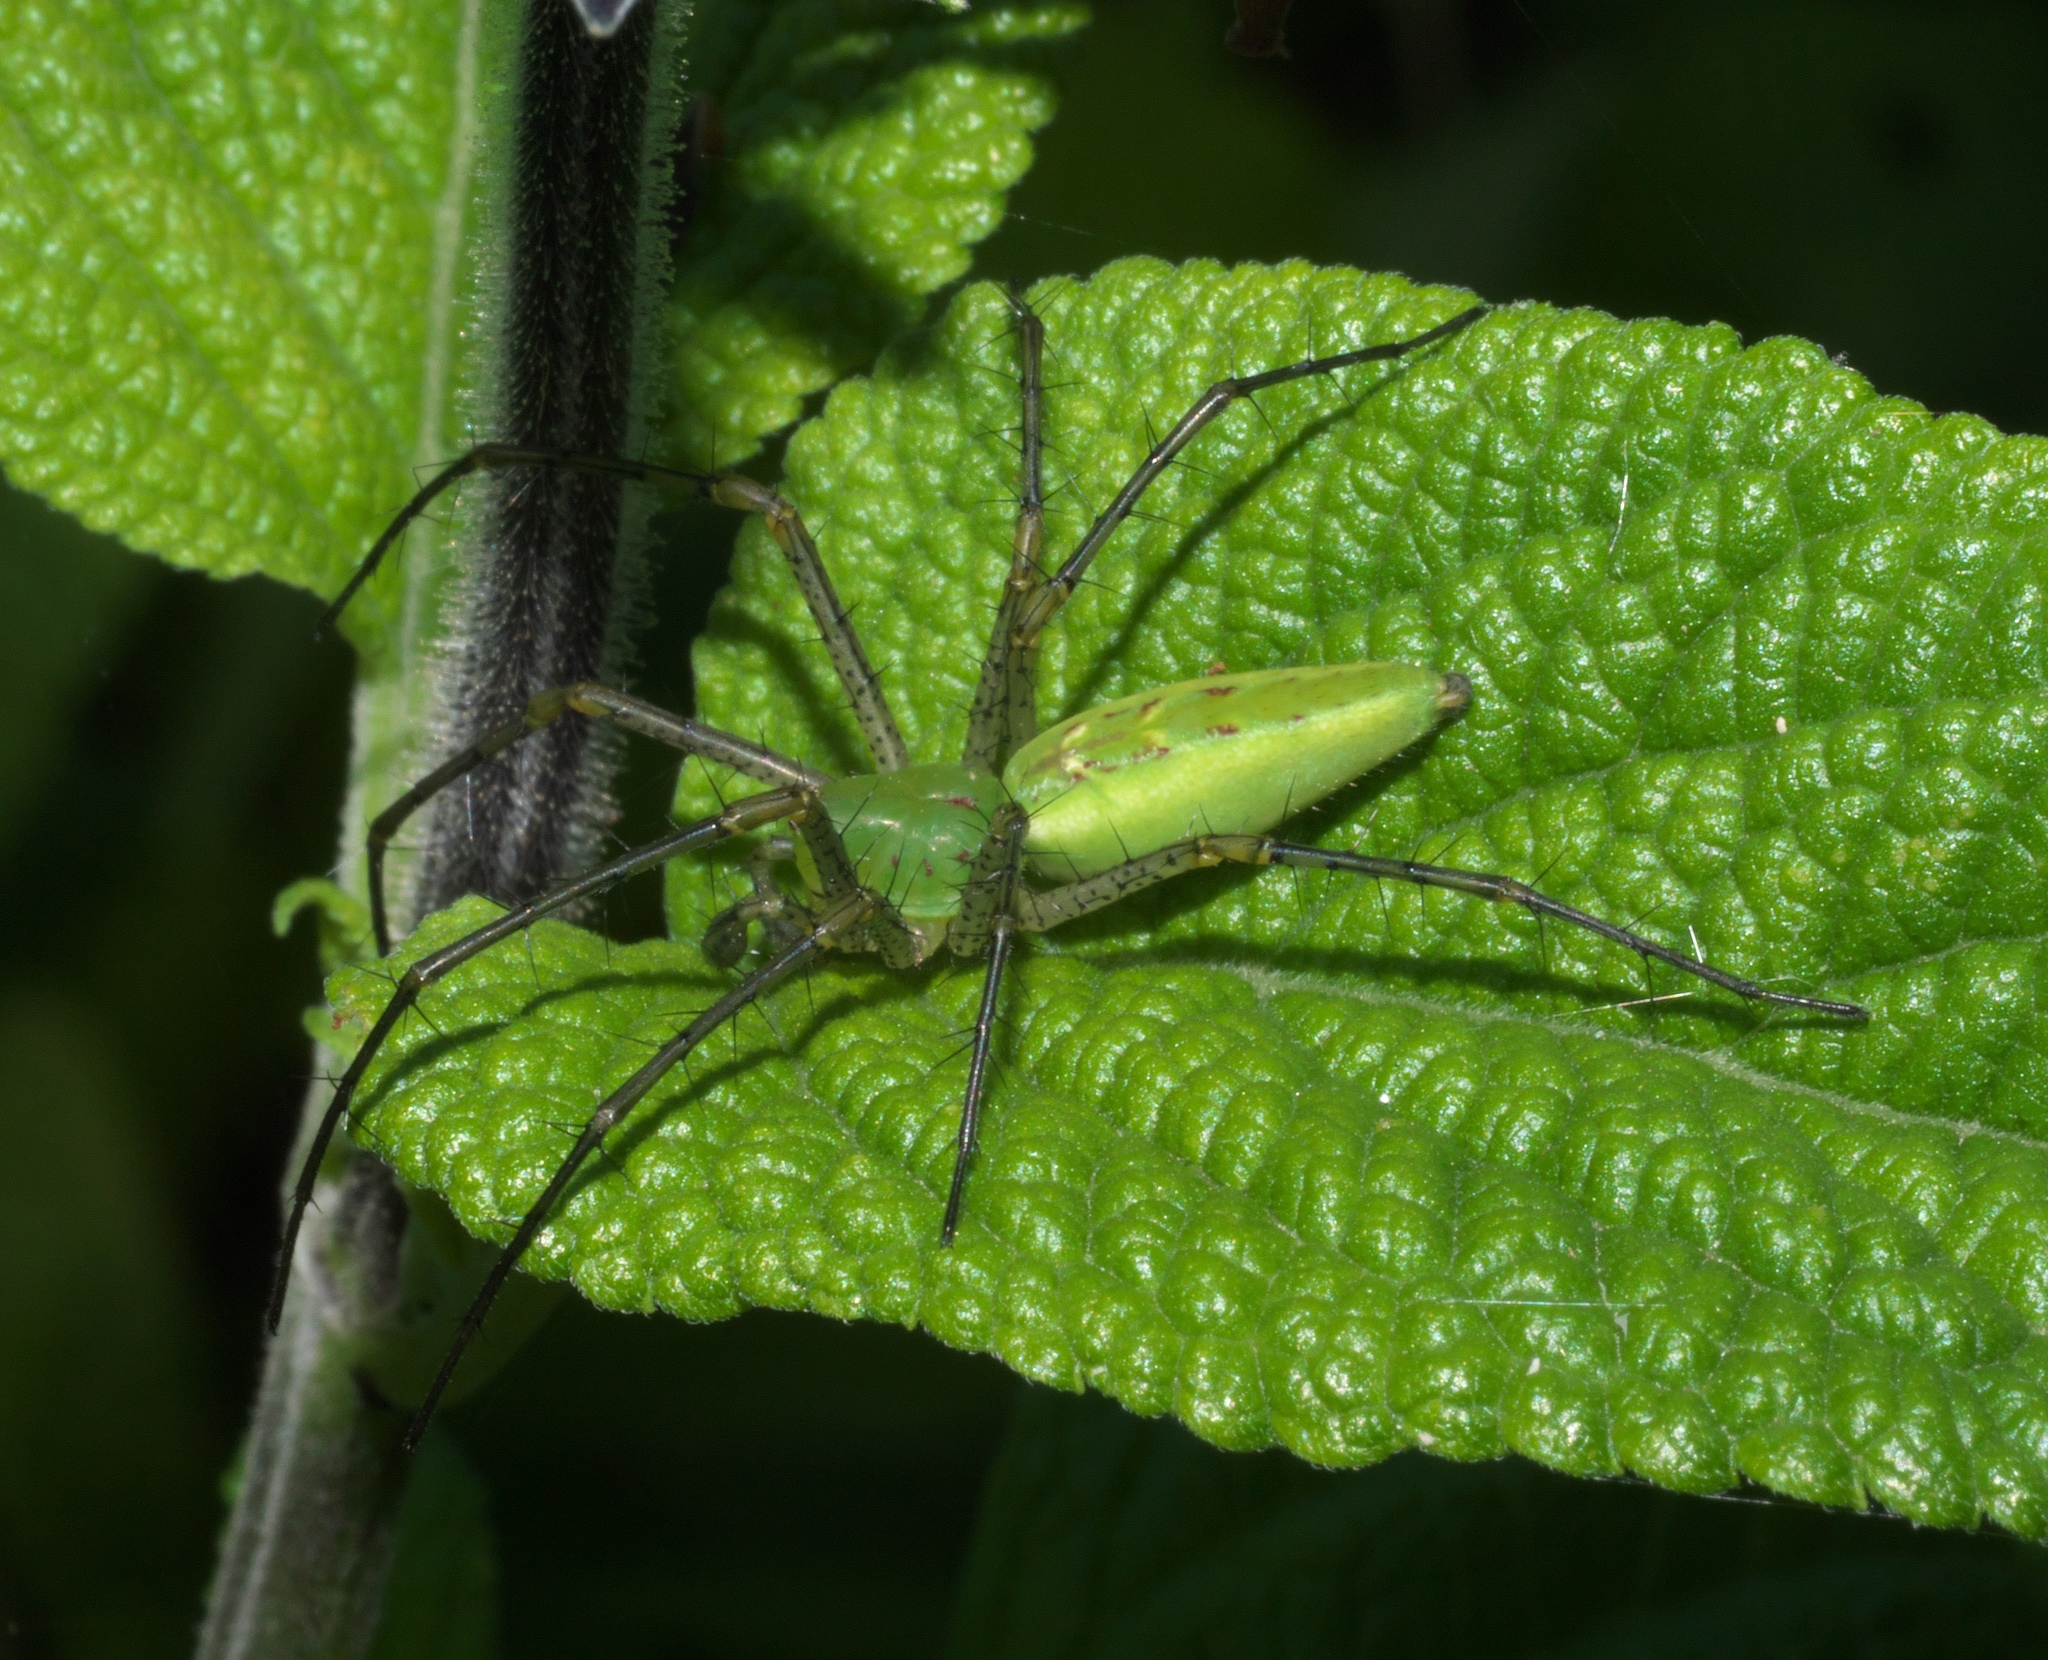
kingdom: Animalia
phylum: Arthropoda
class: Arachnida
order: Araneae
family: Oxyopidae
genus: Peucetia
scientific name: Peucetia viridans
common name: Lynx spiders
